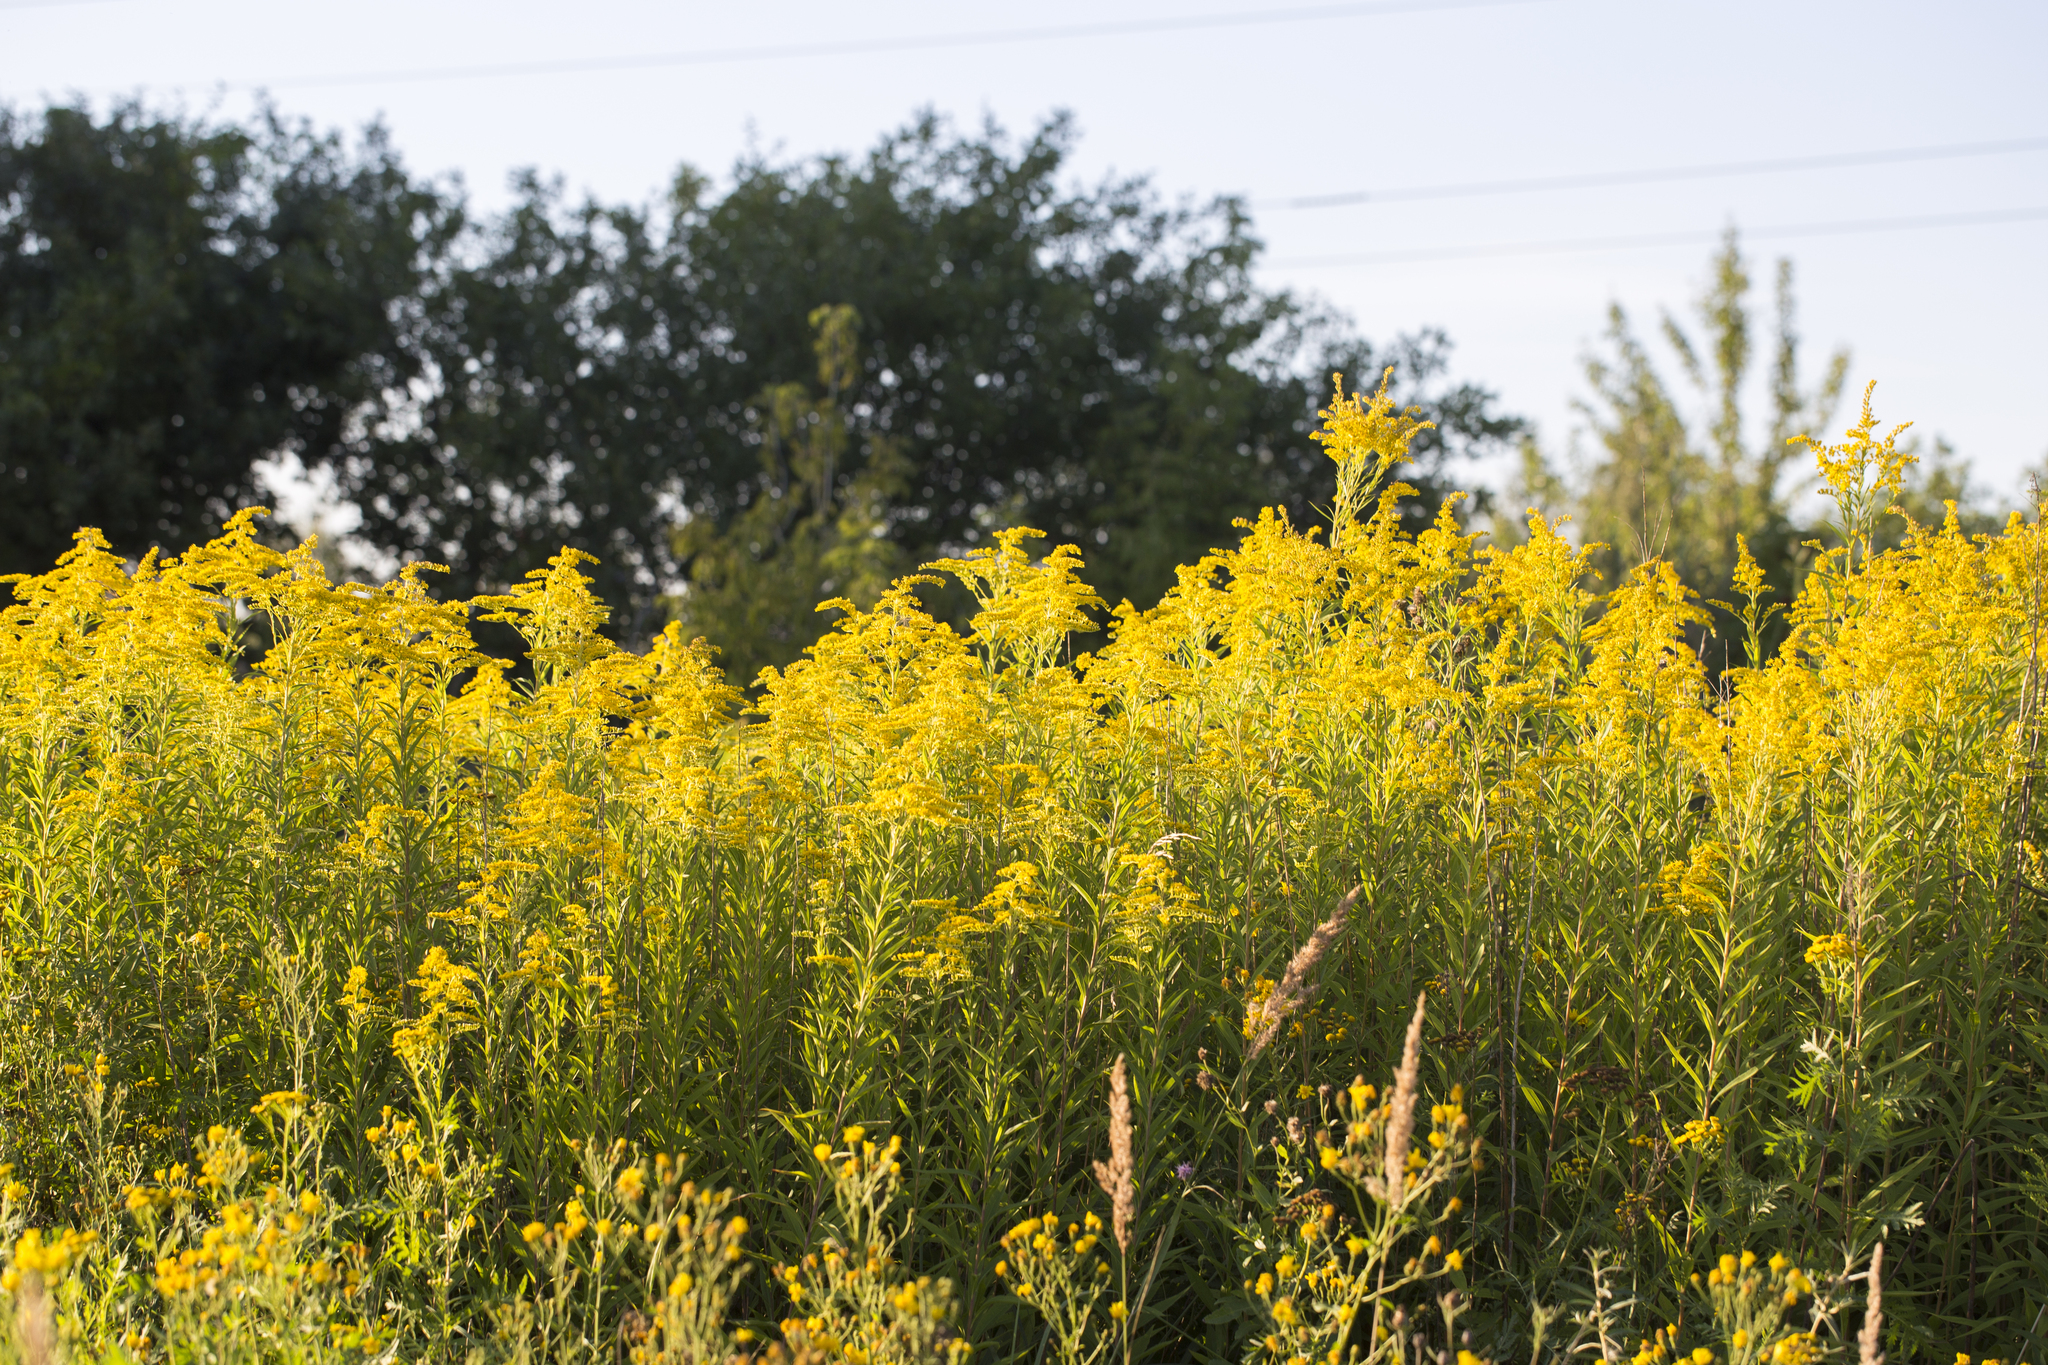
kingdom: Plantae
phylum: Tracheophyta
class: Magnoliopsida
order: Asterales
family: Asteraceae
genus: Solidago
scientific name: Solidago gigantea
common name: Giant goldenrod
